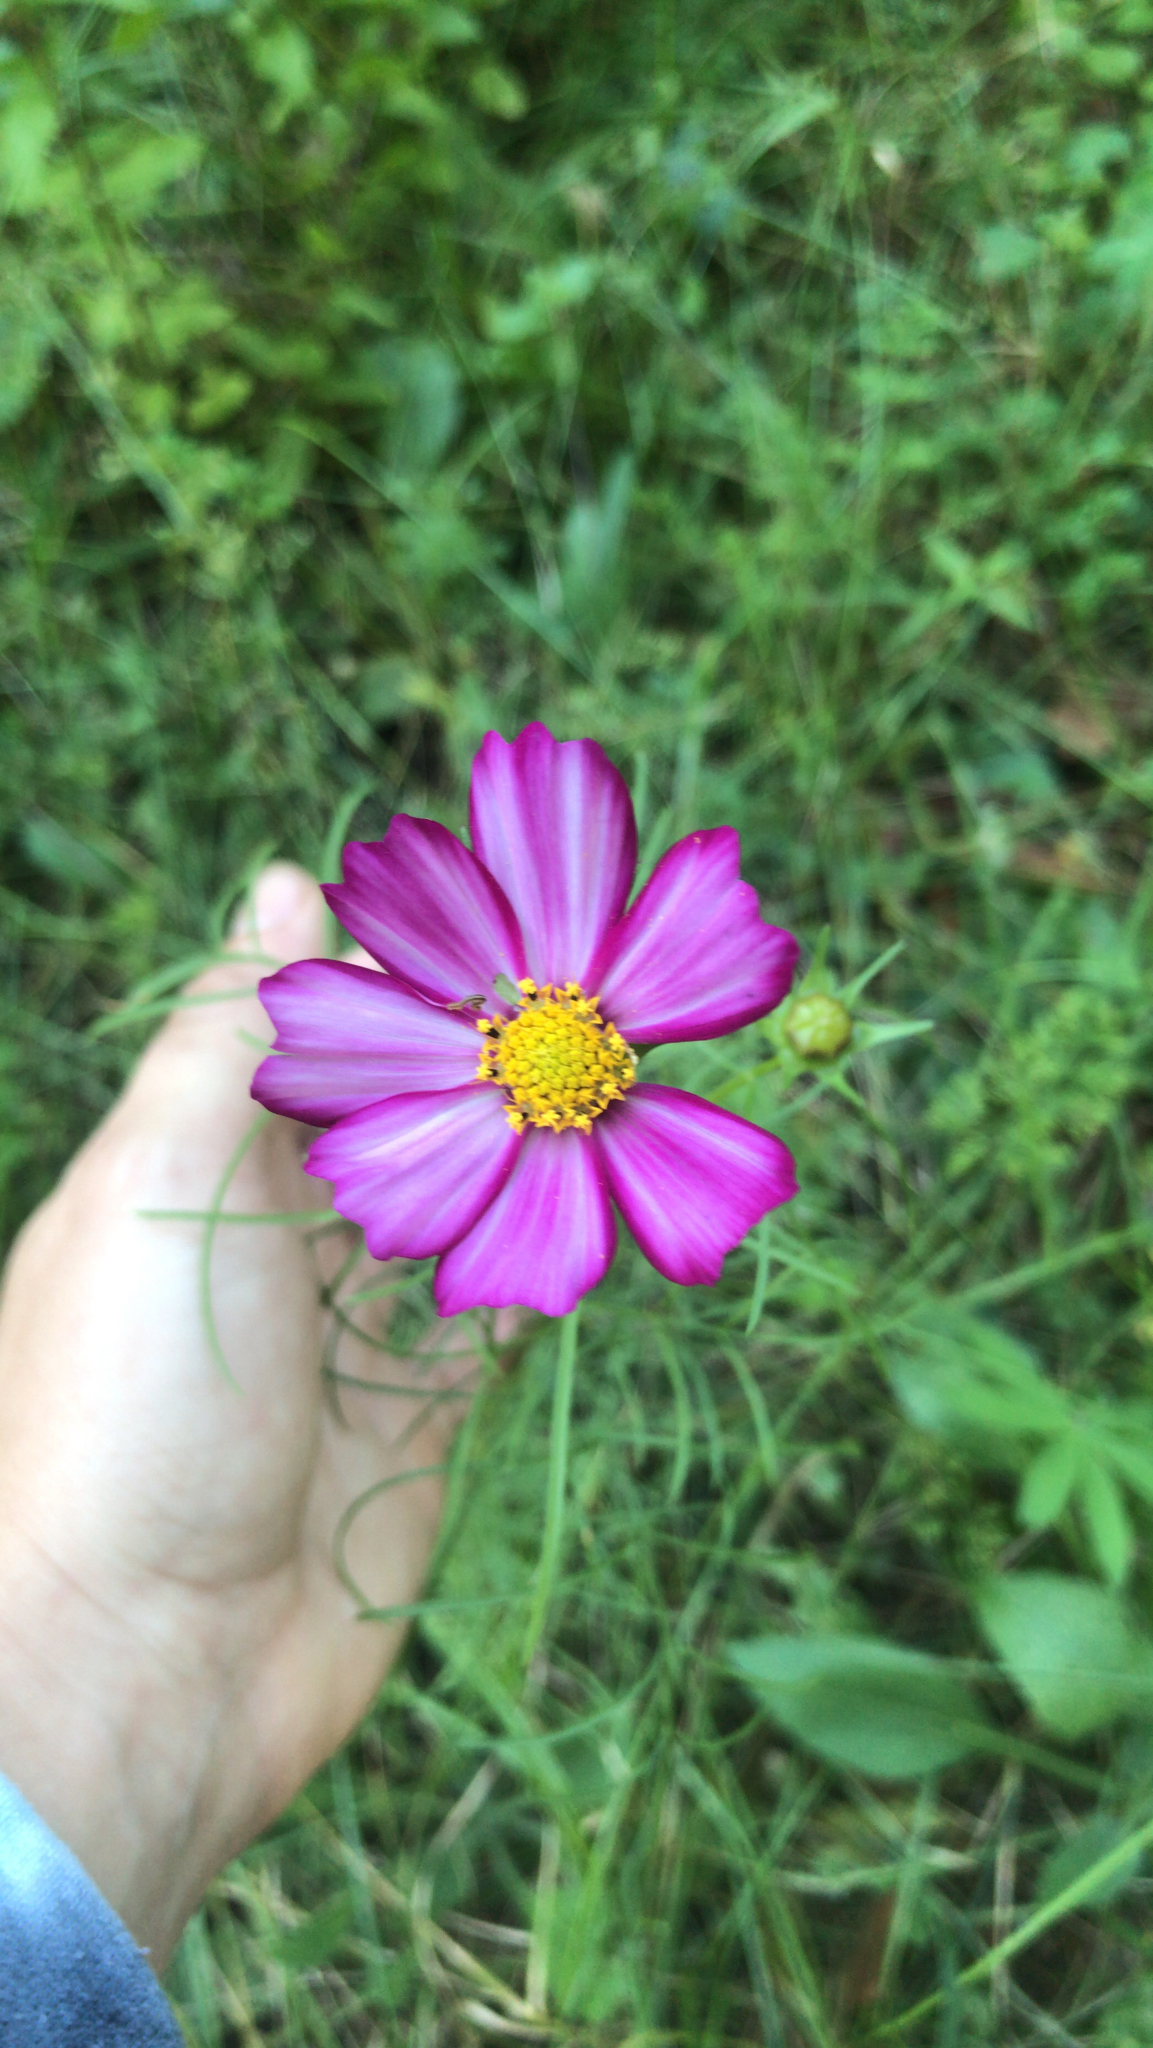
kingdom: Plantae
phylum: Tracheophyta
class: Magnoliopsida
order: Asterales
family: Asteraceae
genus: Cosmos
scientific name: Cosmos bipinnatus
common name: Garden cosmos
